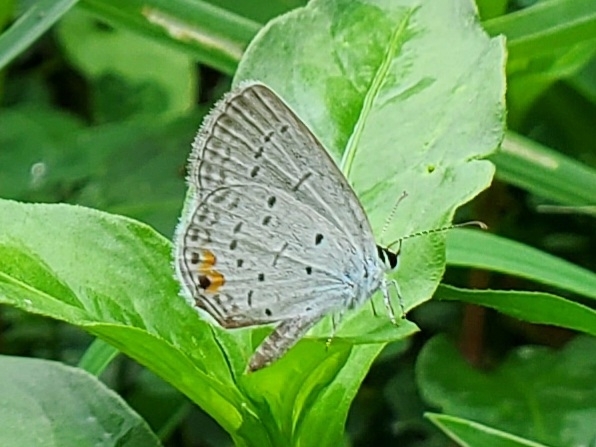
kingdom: Animalia
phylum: Arthropoda
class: Insecta
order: Lepidoptera
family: Lycaenidae
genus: Elkalyce
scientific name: Elkalyce comyntas
